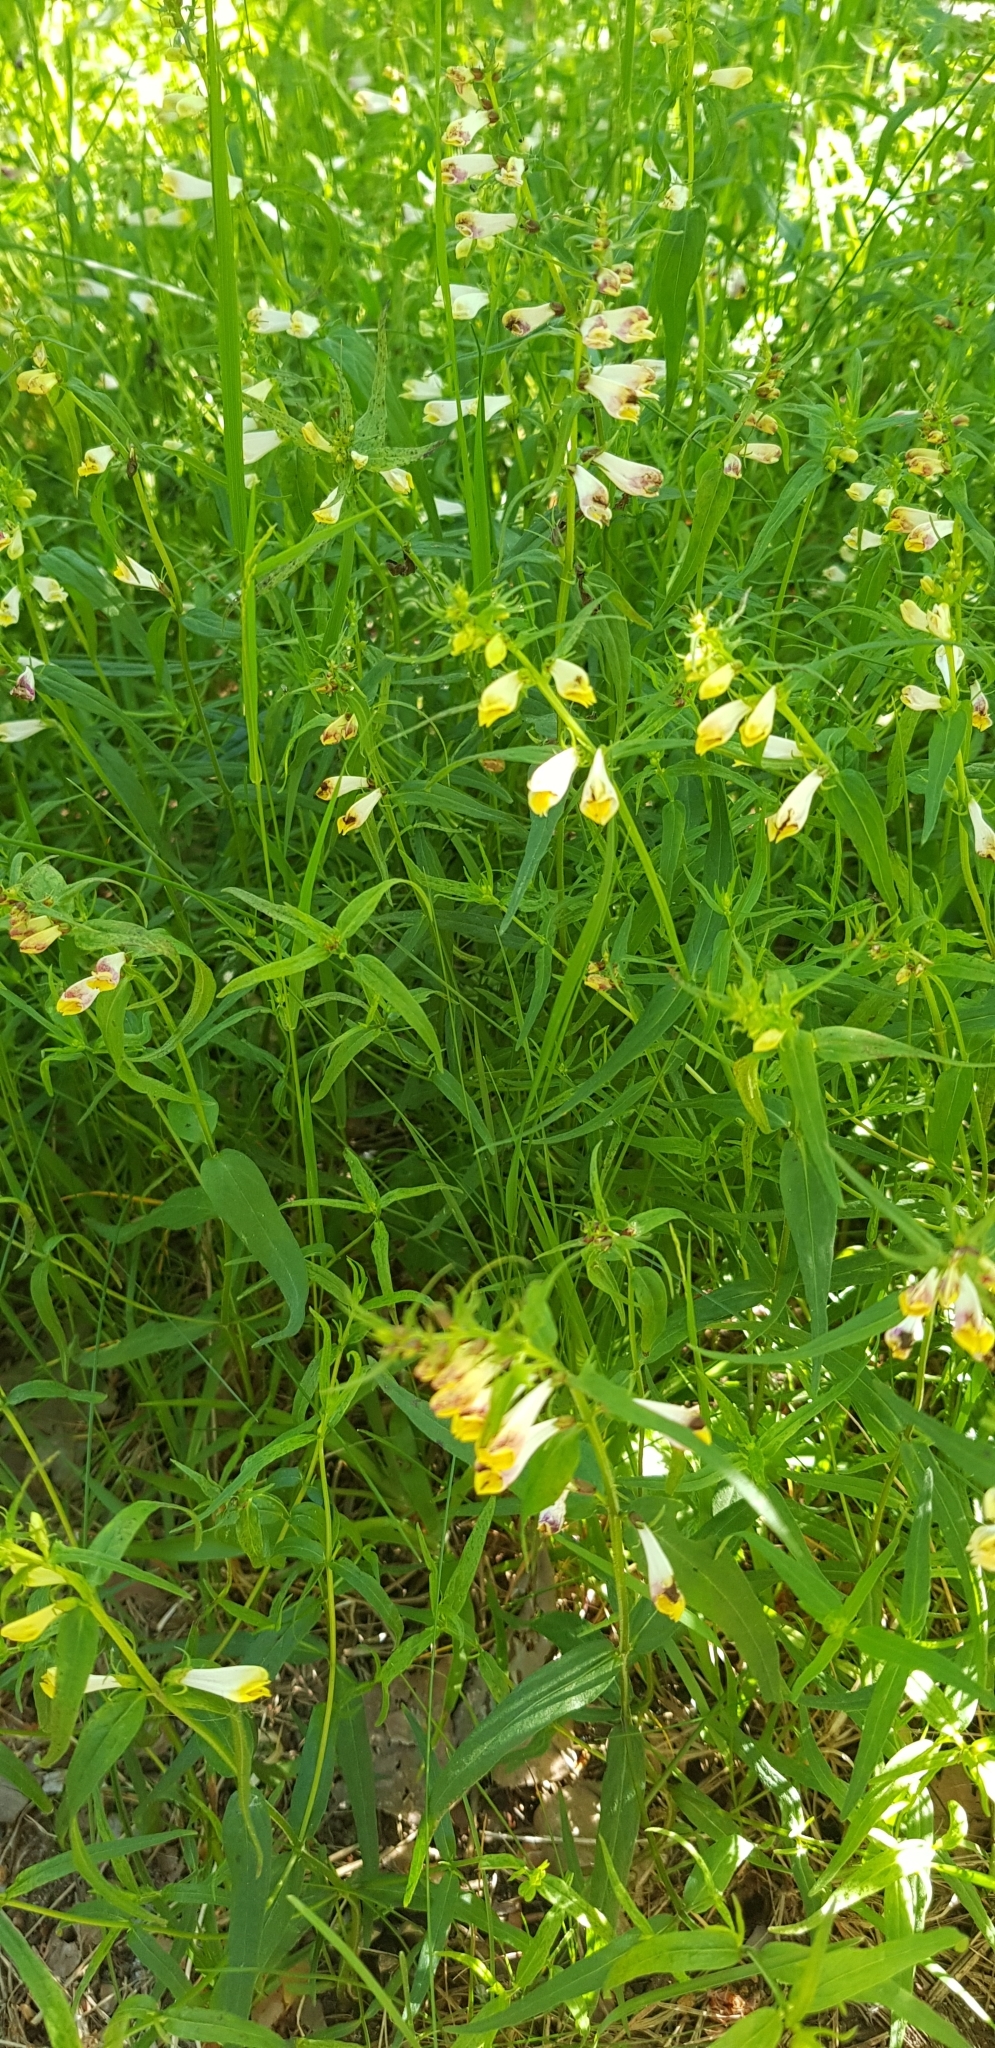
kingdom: Plantae
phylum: Tracheophyta
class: Magnoliopsida
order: Lamiales
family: Orobanchaceae
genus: Melampyrum
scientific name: Melampyrum pratense
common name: Common cow-wheat
